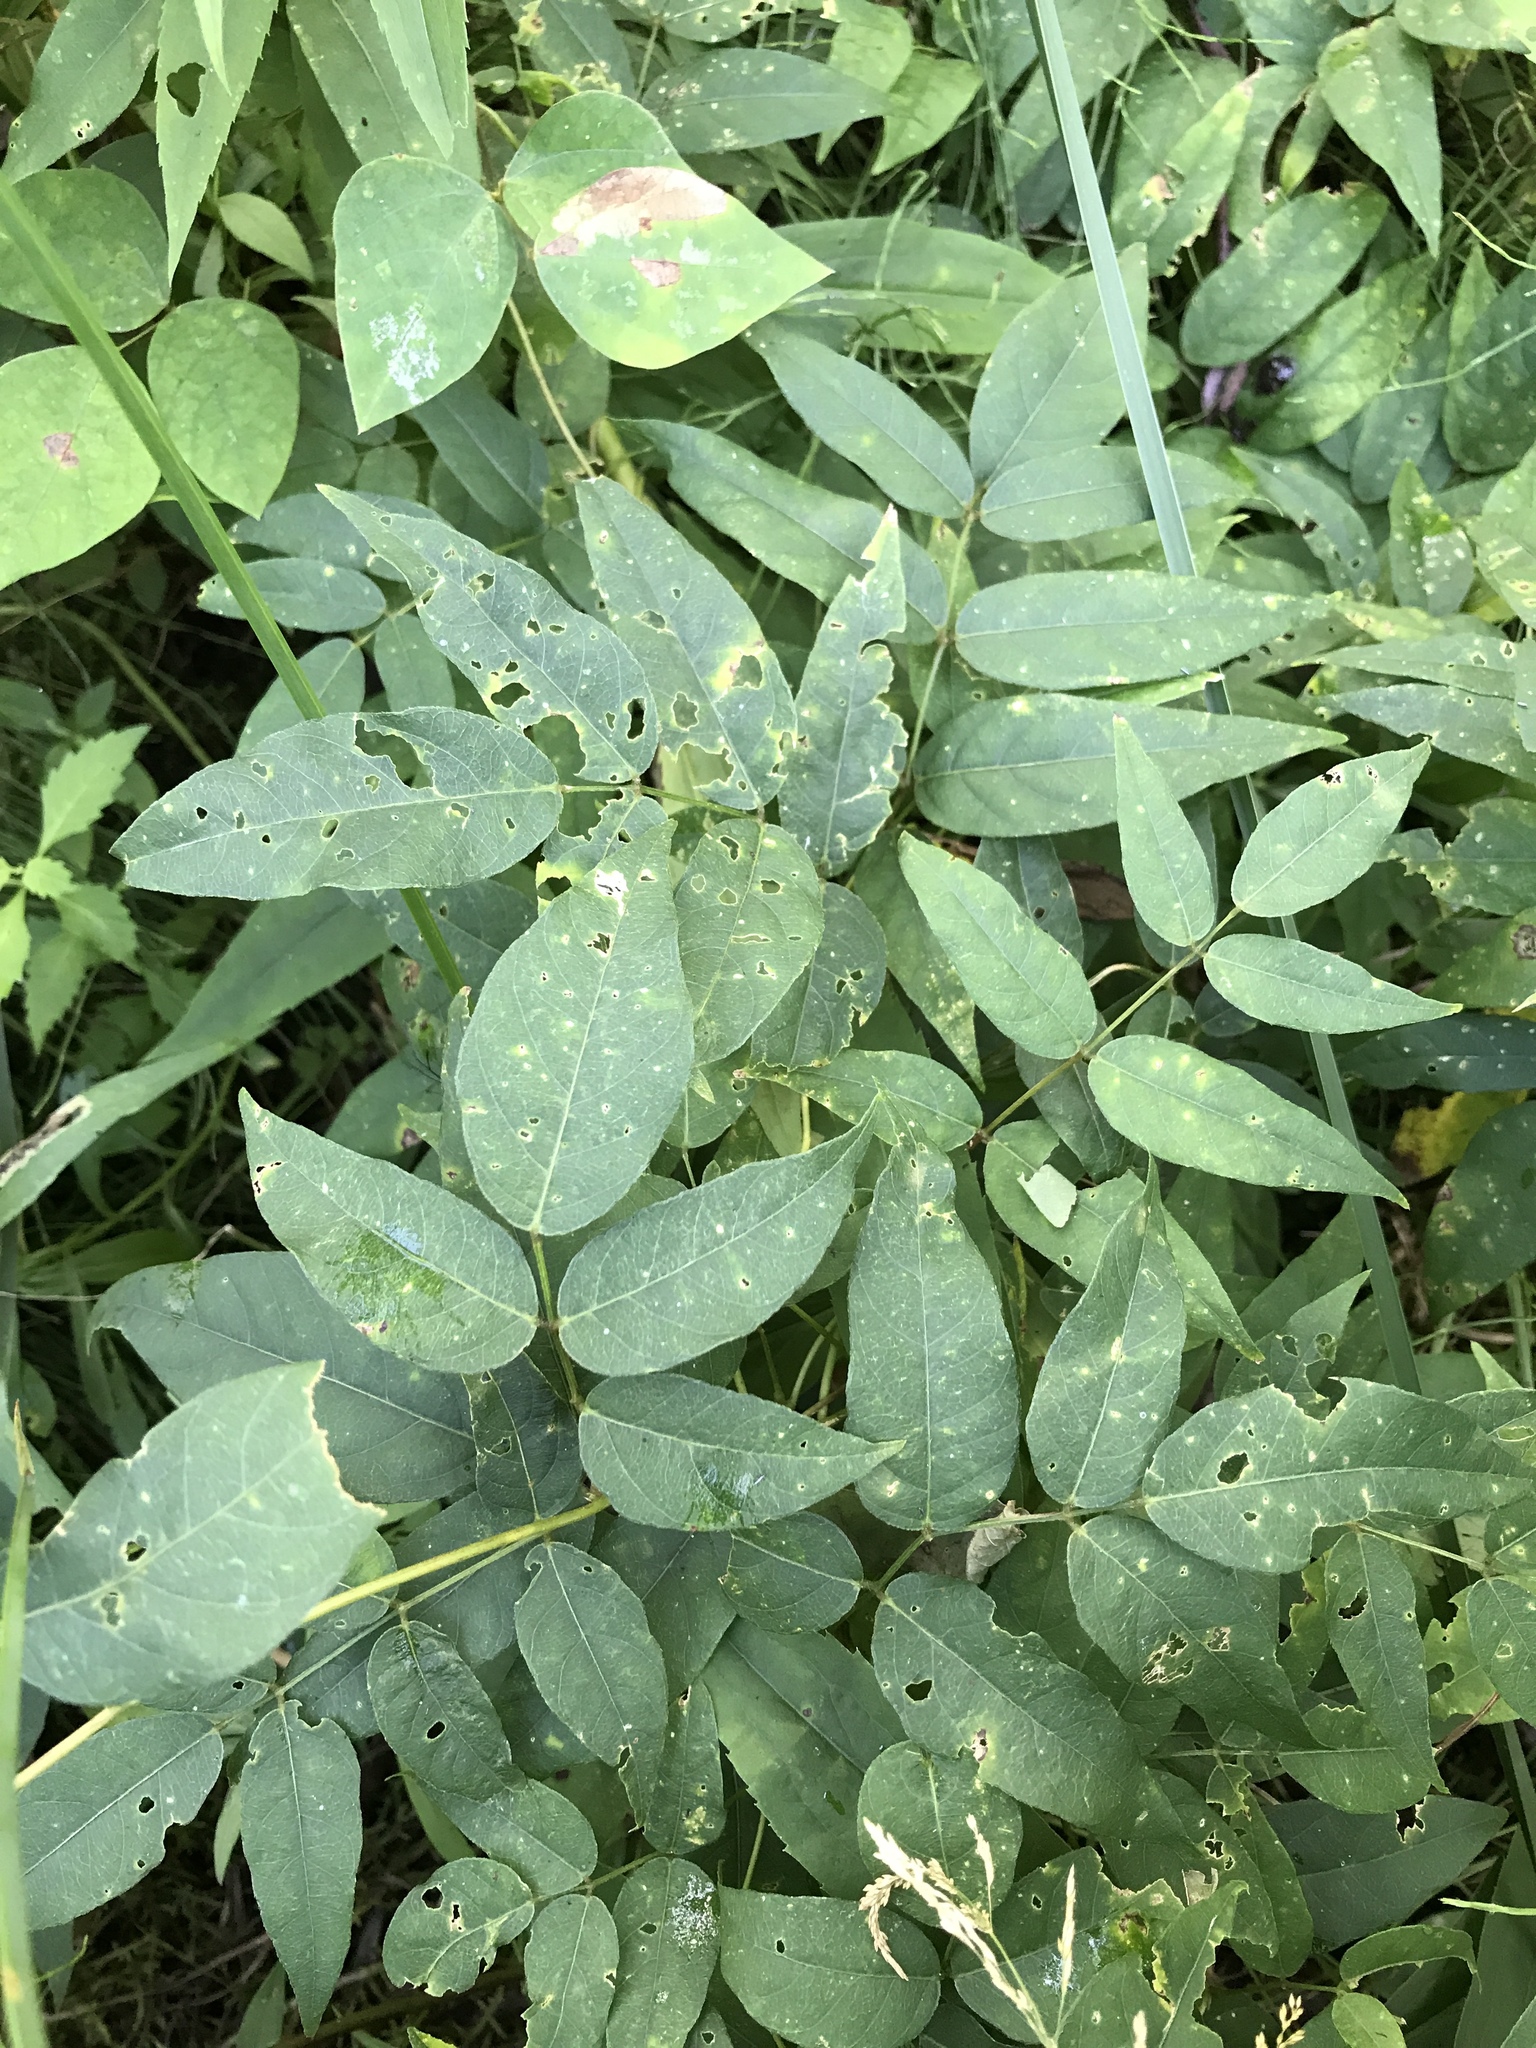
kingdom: Plantae
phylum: Tracheophyta
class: Magnoliopsida
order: Fabales
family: Fabaceae
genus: Apios
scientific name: Apios americana
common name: American potato-bean
